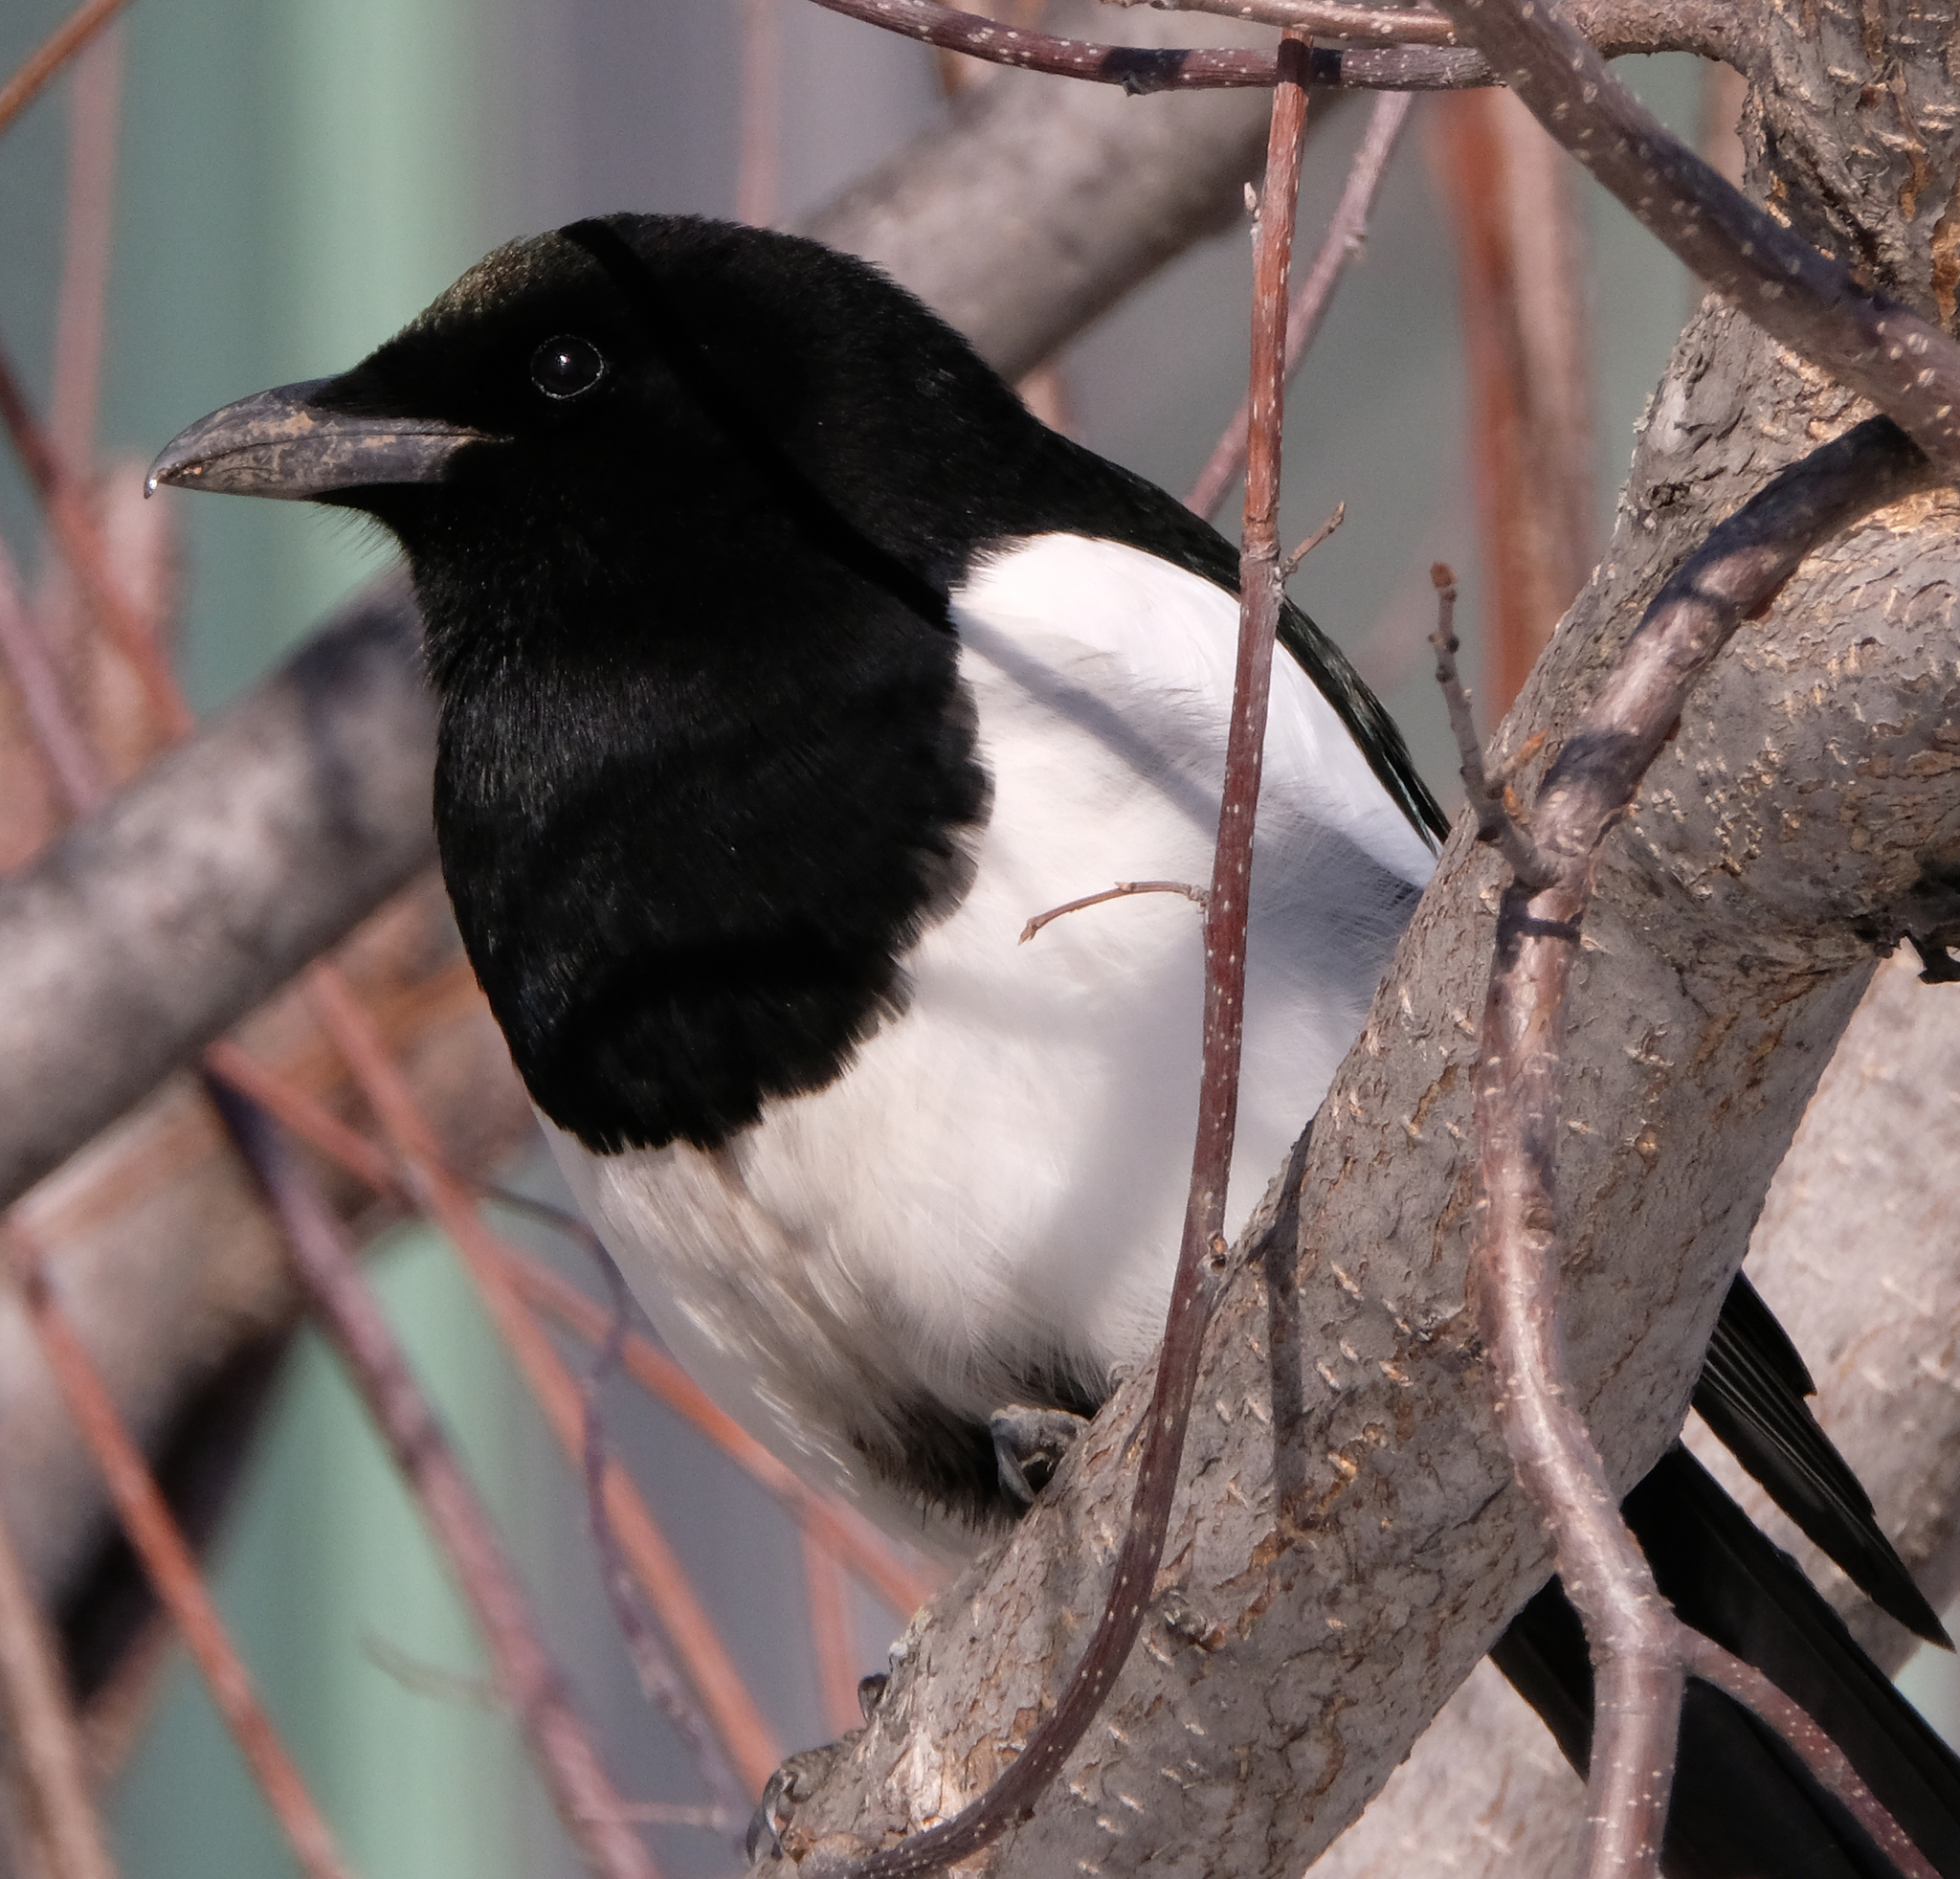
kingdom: Animalia
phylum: Chordata
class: Aves
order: Passeriformes
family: Corvidae
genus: Pica
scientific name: Pica hudsonia
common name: Black-billed magpie
